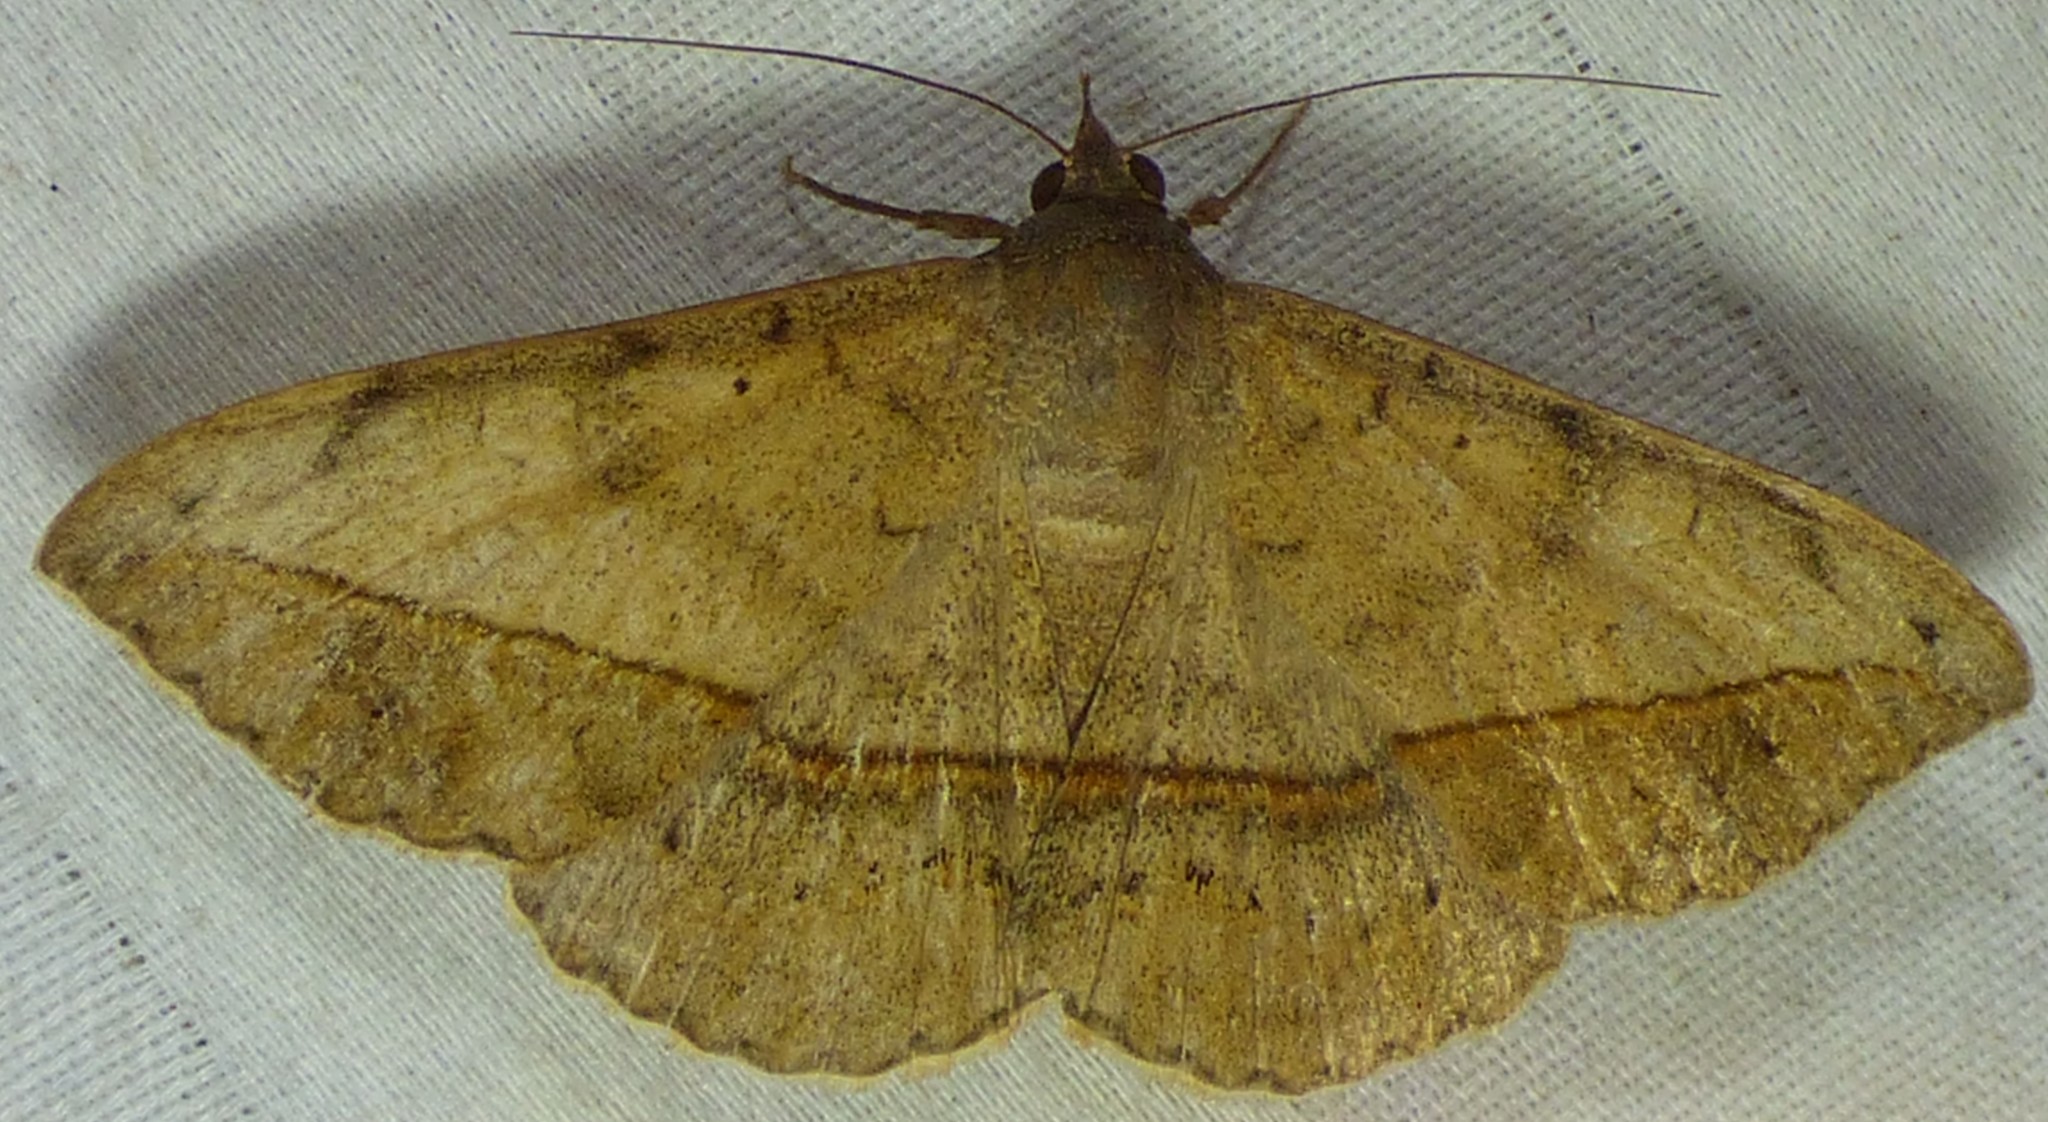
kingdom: Animalia
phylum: Arthropoda
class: Insecta
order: Lepidoptera
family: Erebidae
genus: Anticarsia
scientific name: Anticarsia gemmatalis
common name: Cutworm moth
